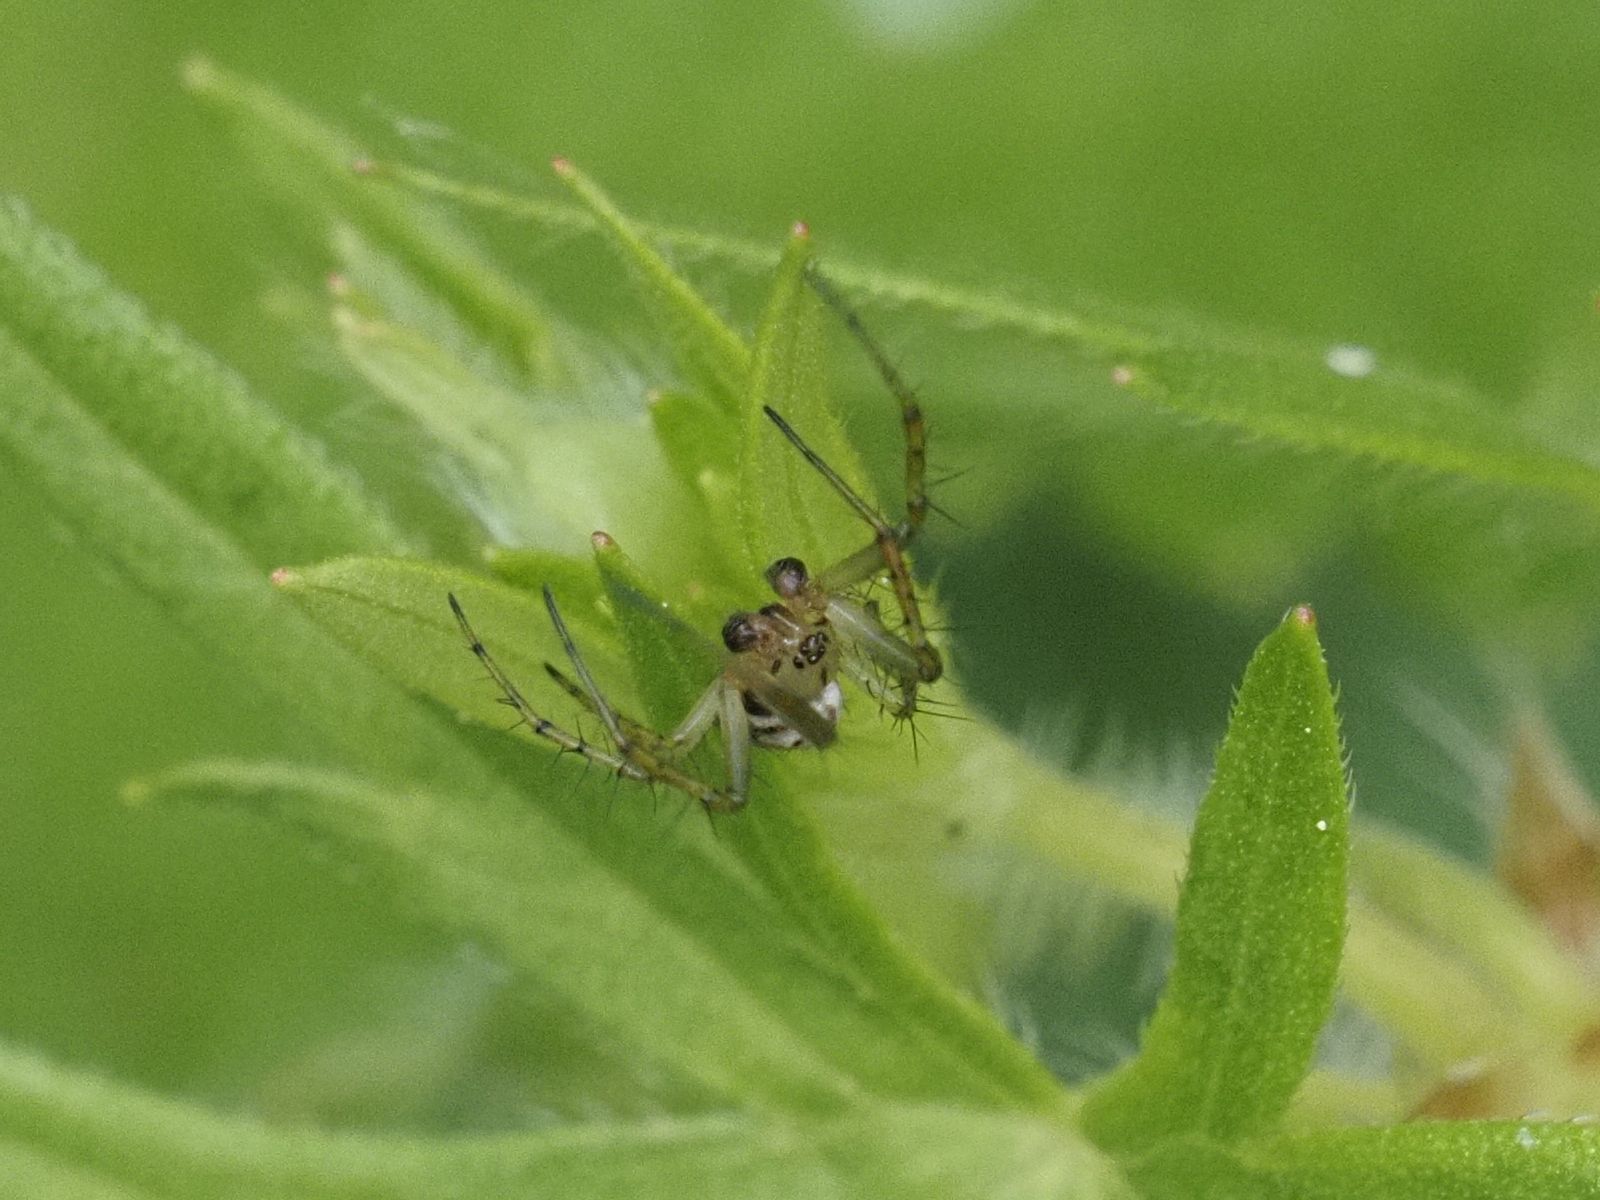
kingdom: Animalia
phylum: Arthropoda
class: Arachnida
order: Araneae
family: Araneidae
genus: Mangora
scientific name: Mangora acalypha
